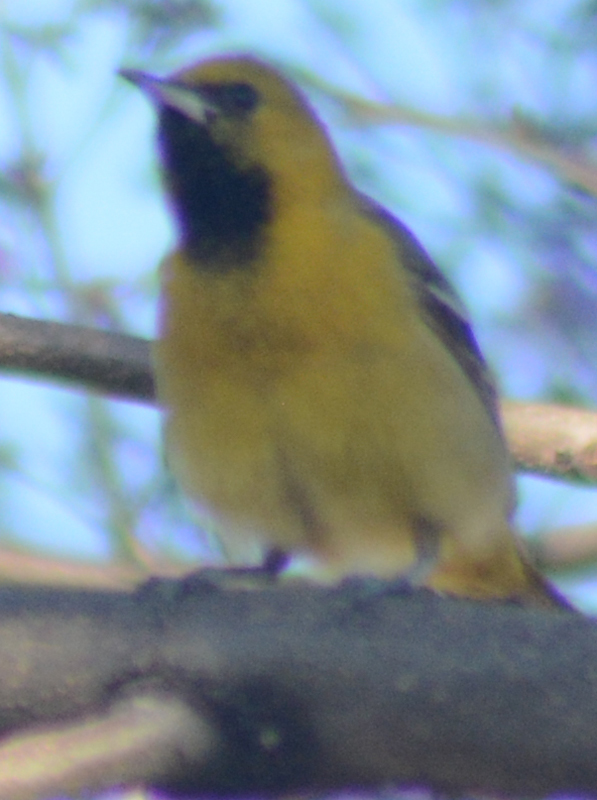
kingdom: Animalia
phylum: Chordata
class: Aves
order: Passeriformes
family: Icteridae
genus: Icterus
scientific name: Icterus cucullatus
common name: Hooded oriole
